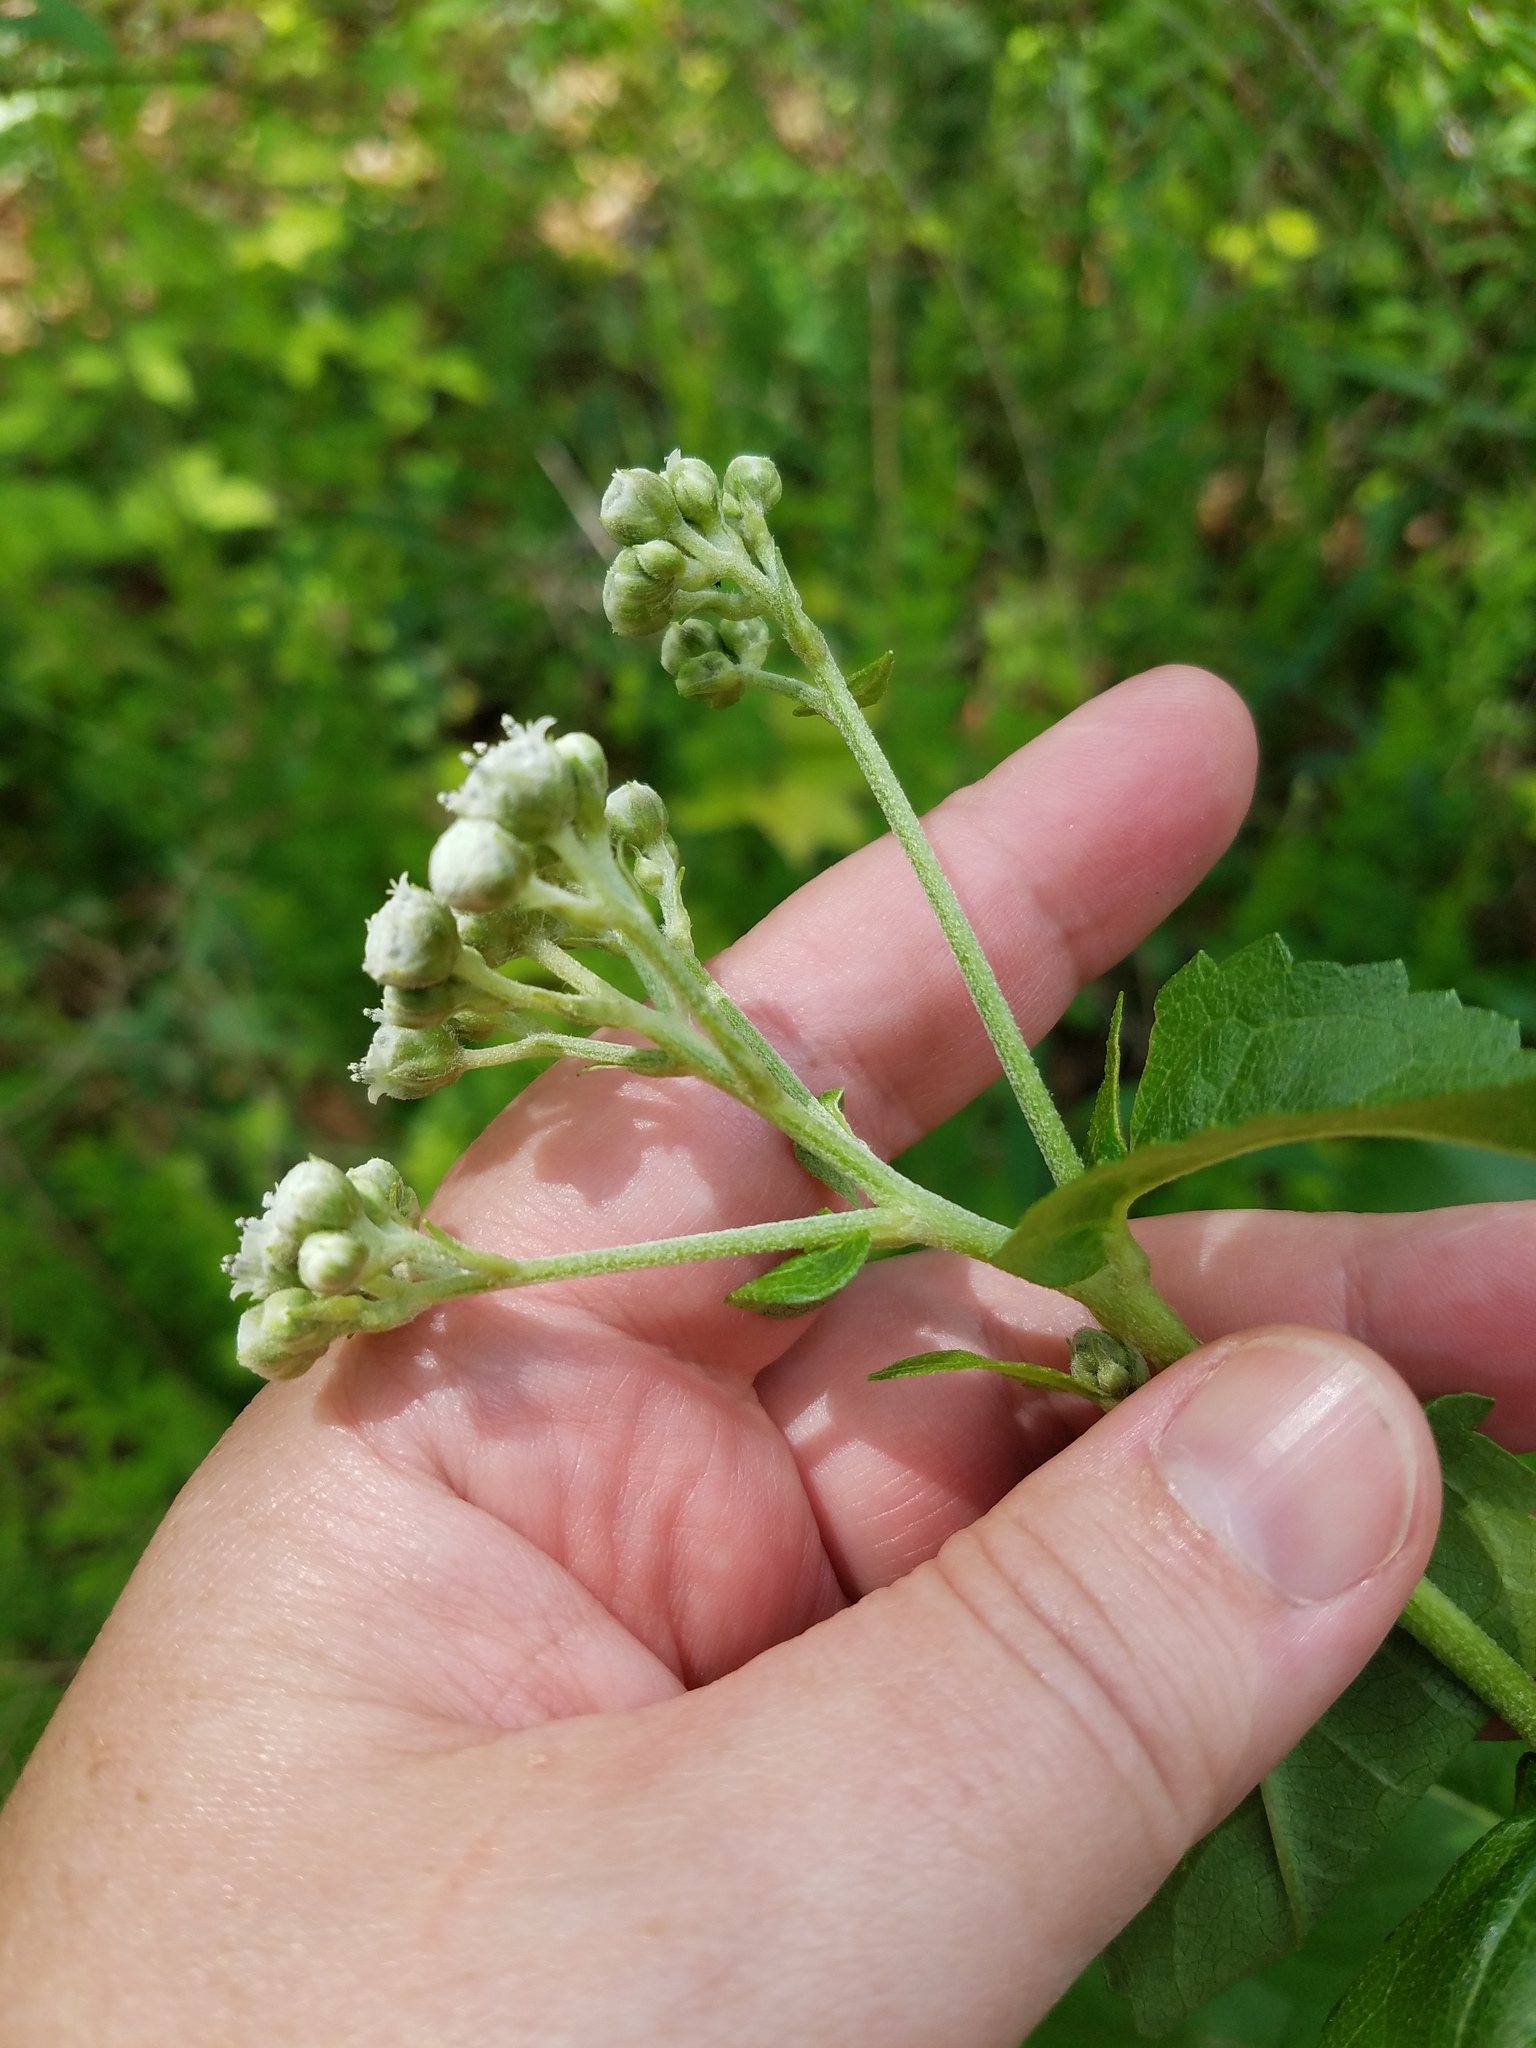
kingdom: Plantae
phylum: Tracheophyta
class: Magnoliopsida
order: Asterales
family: Asteraceae
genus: Parthenium
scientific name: Parthenium integrifolium
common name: American feverfew
